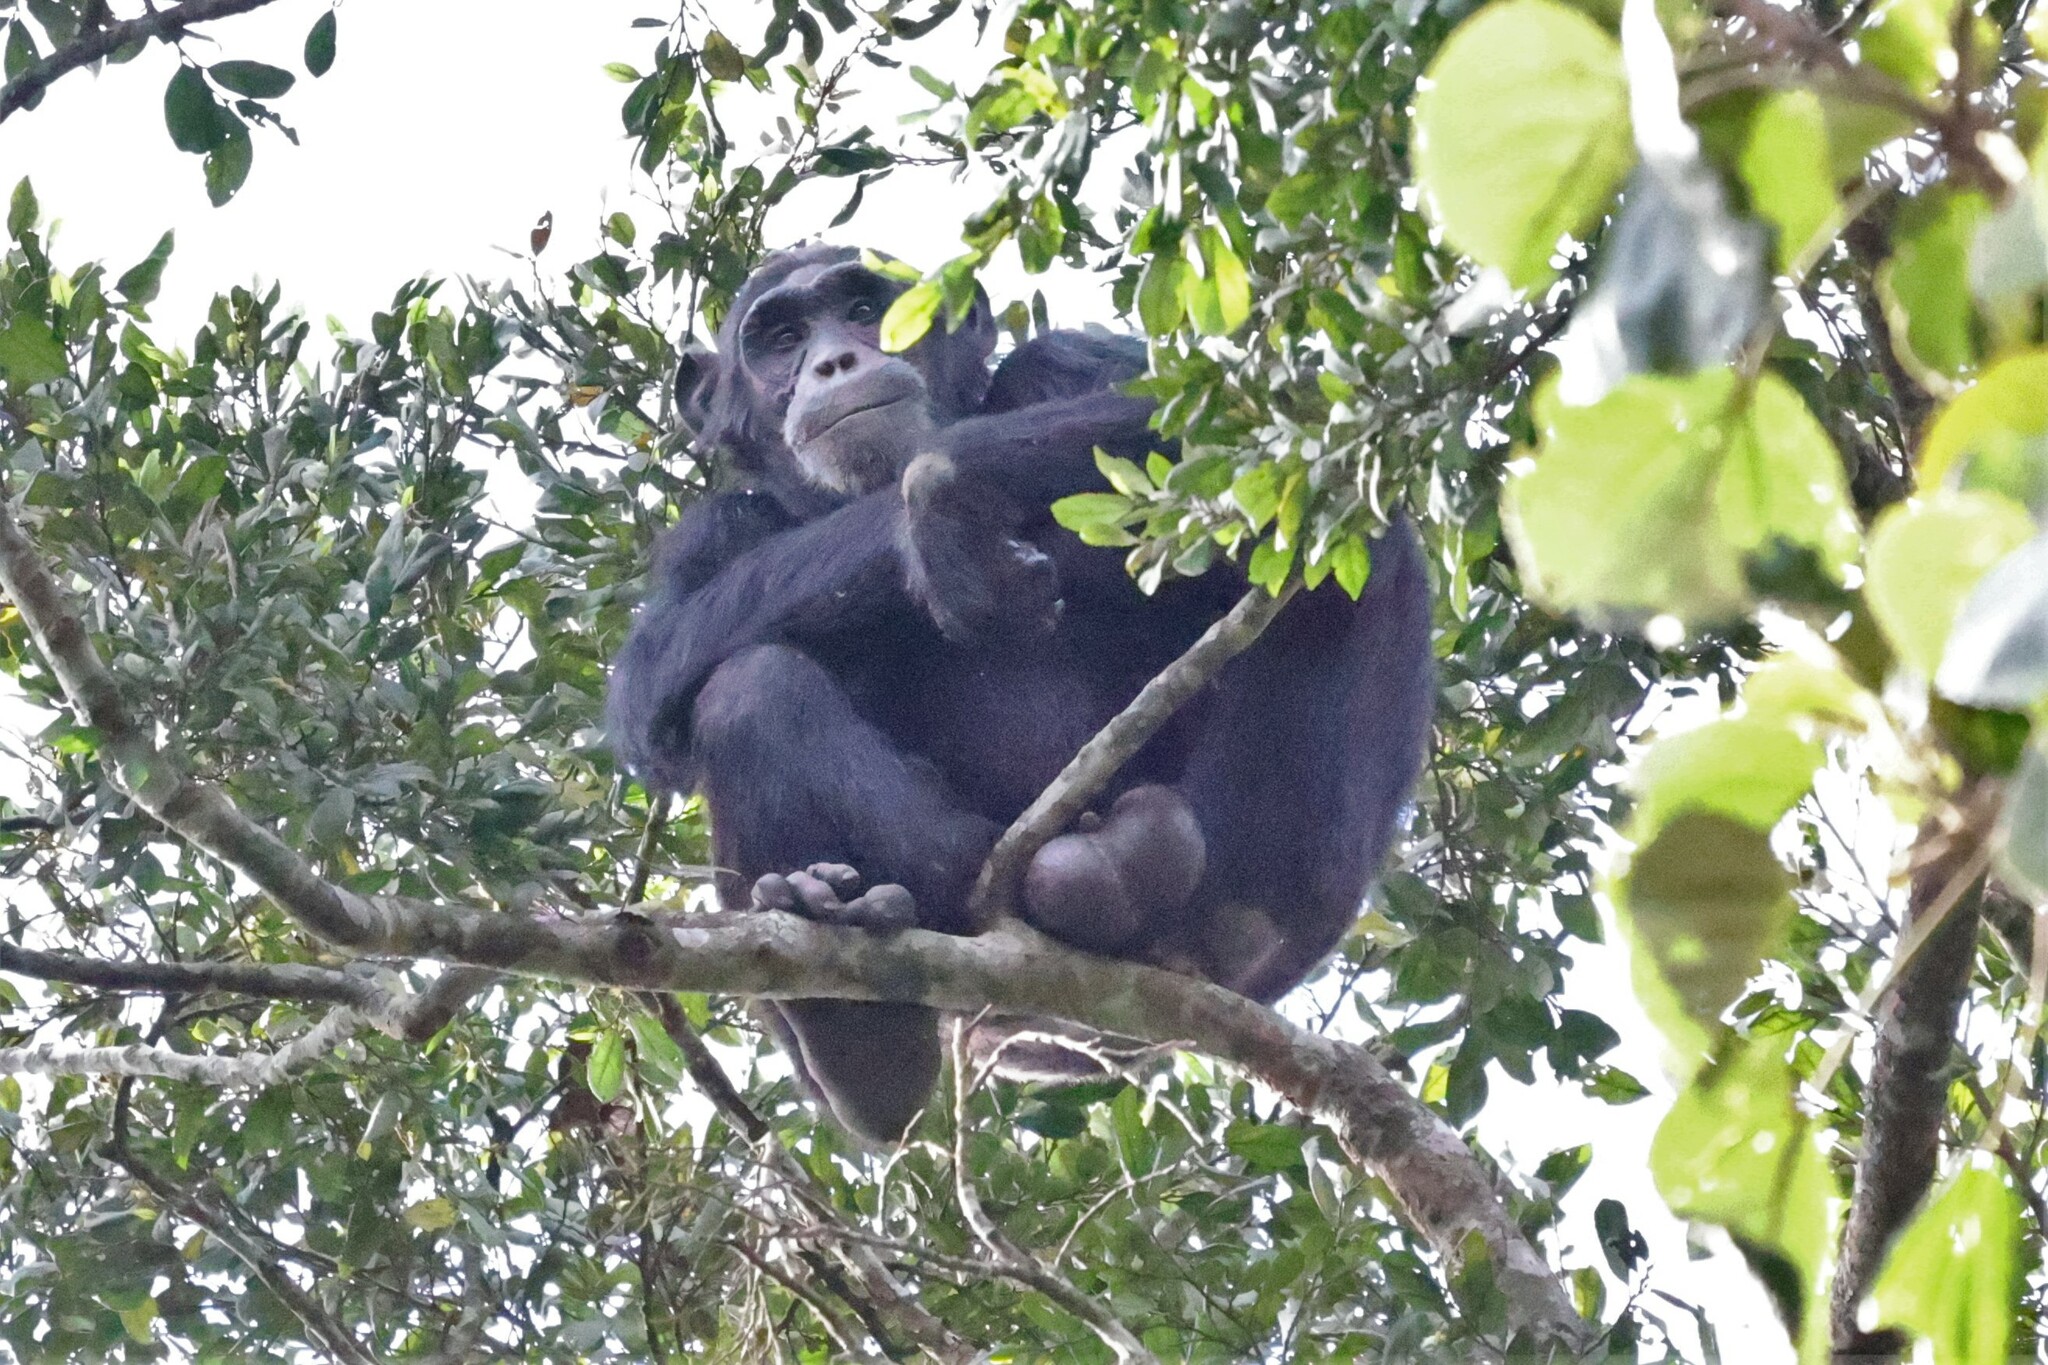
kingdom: Animalia
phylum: Chordata
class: Mammalia
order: Primates
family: Hominidae
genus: Pan
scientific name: Pan troglodytes
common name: Chimpanzee
